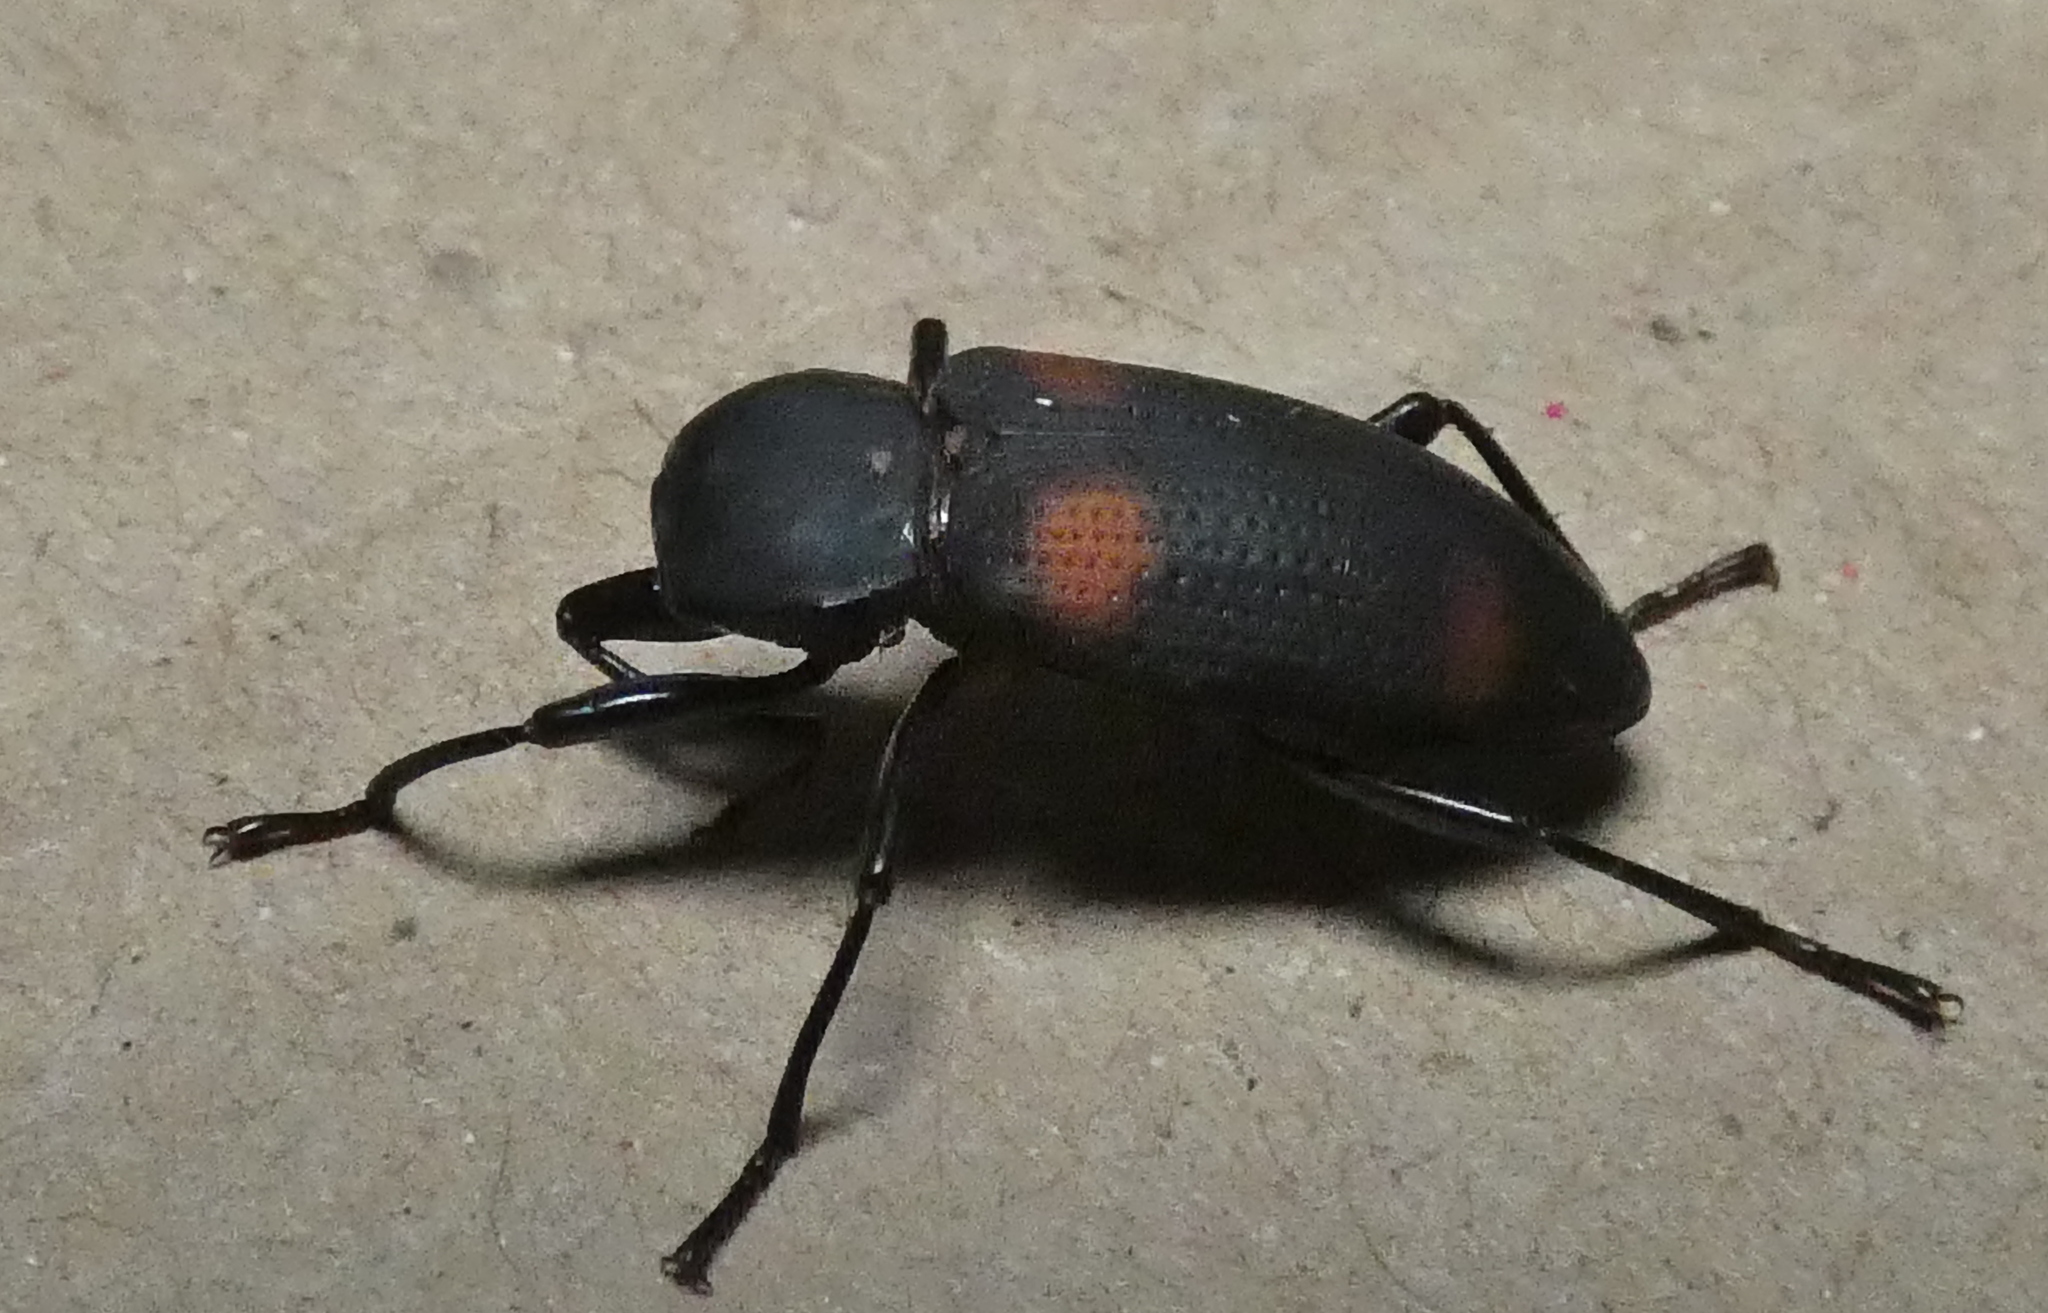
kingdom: Animalia
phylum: Arthropoda
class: Insecta
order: Coleoptera
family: Tenebrionidae
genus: Zophobas
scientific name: Zophobas
